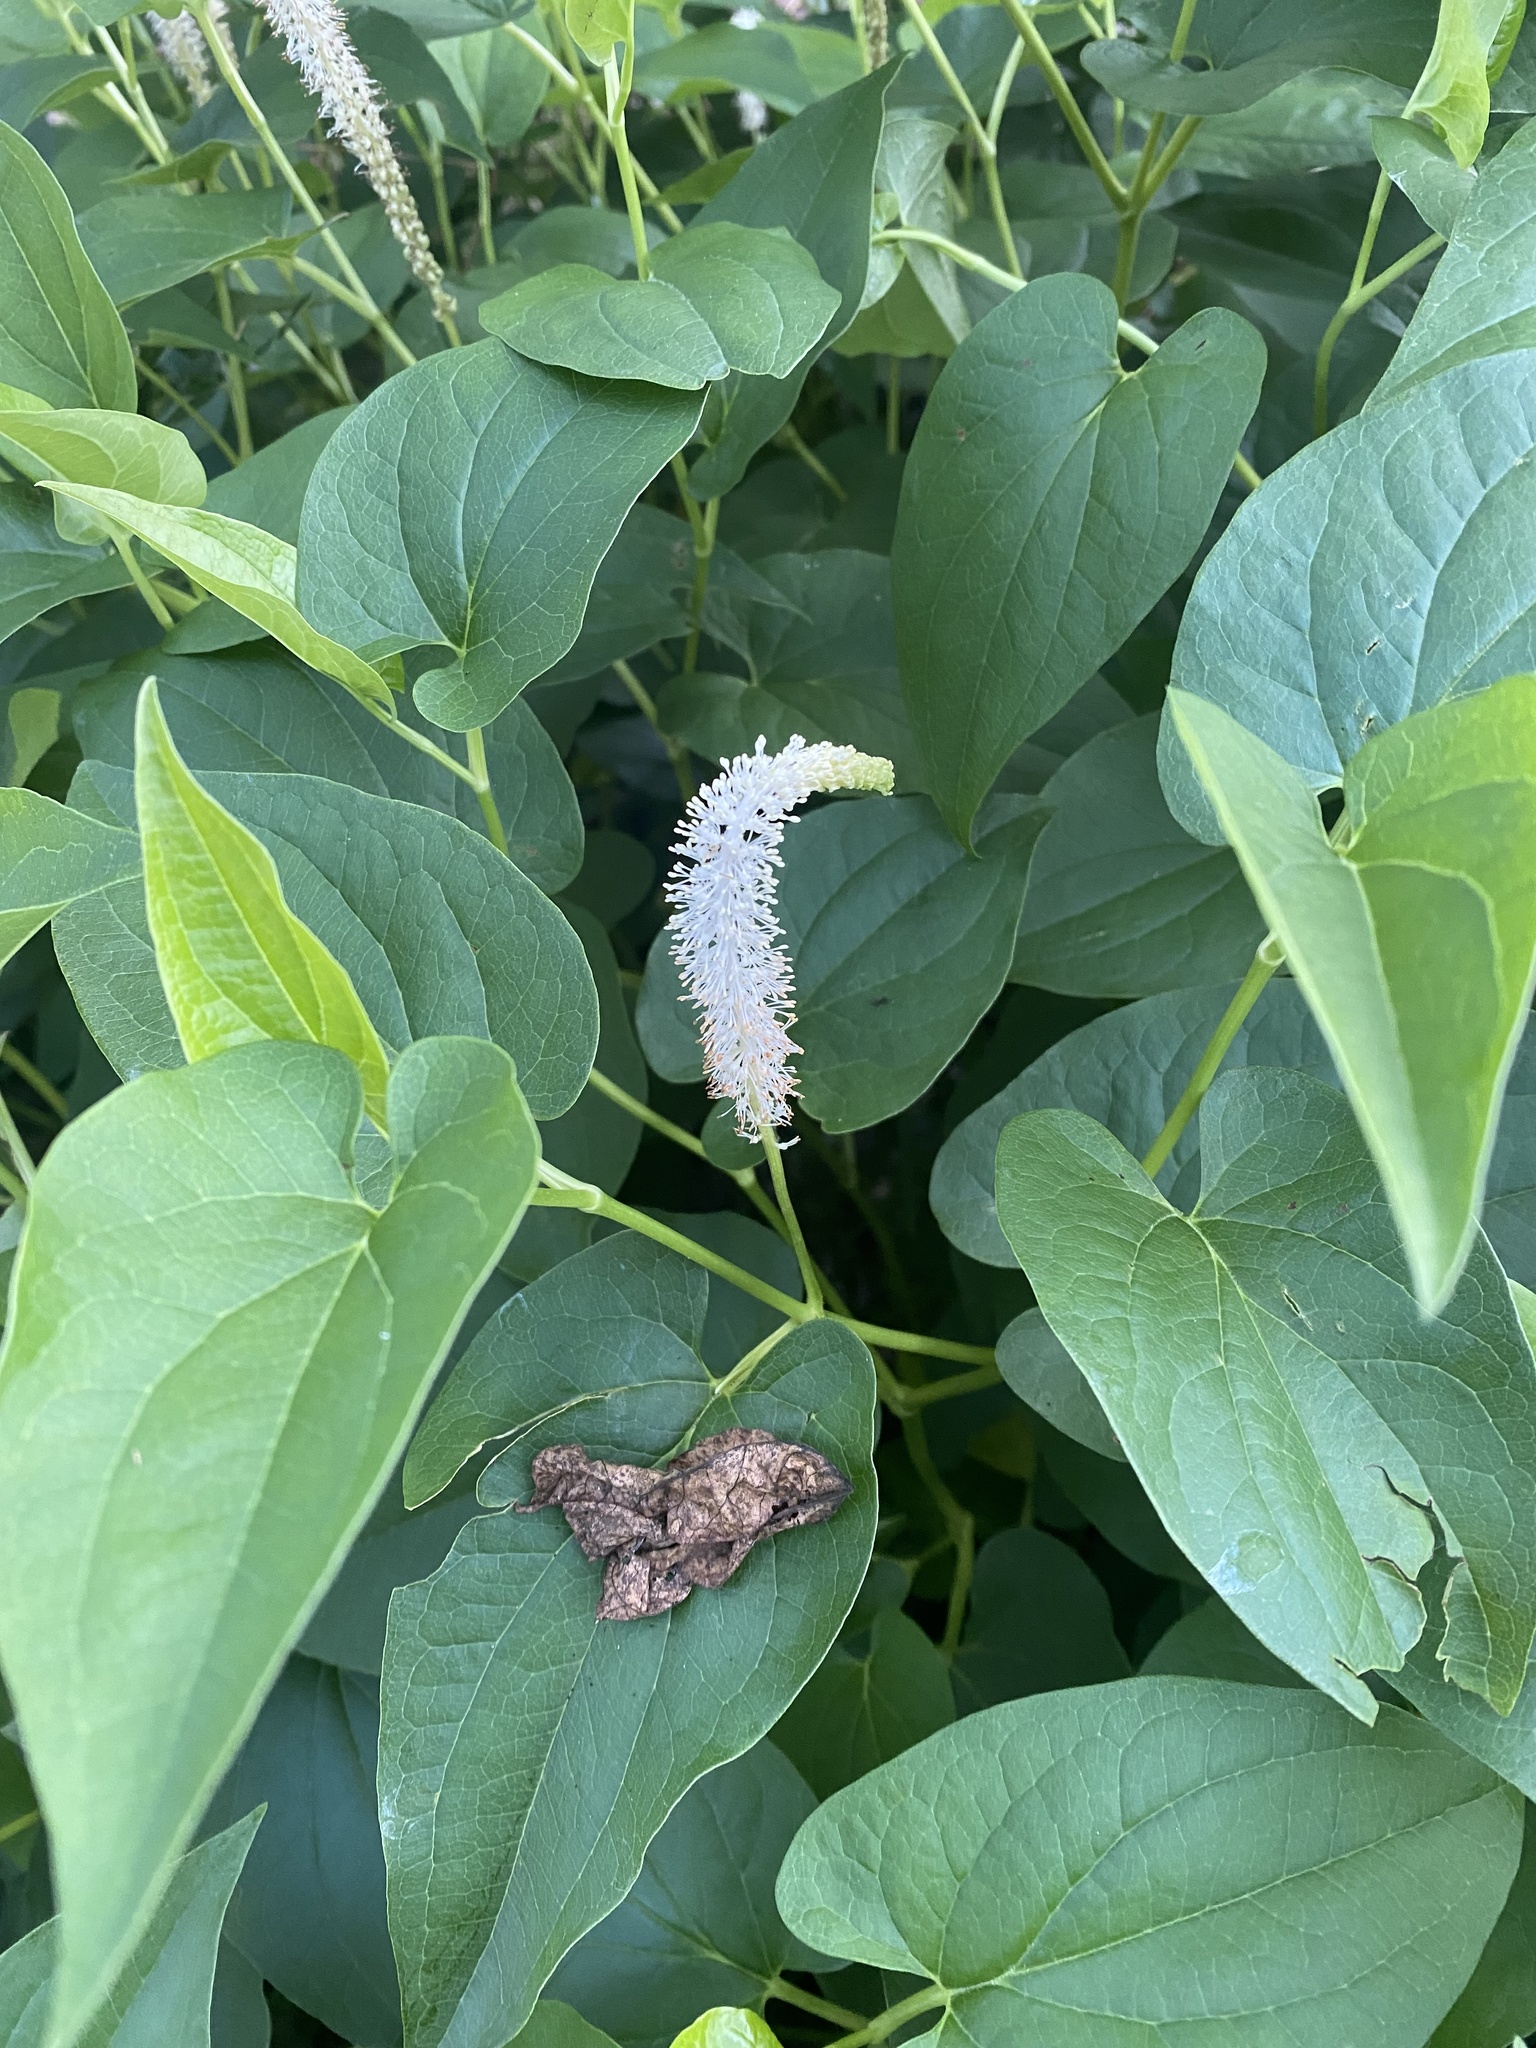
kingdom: Plantae
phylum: Tracheophyta
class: Magnoliopsida
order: Piperales
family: Saururaceae
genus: Saururus
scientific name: Saururus cernuus
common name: Lizard's-tail
